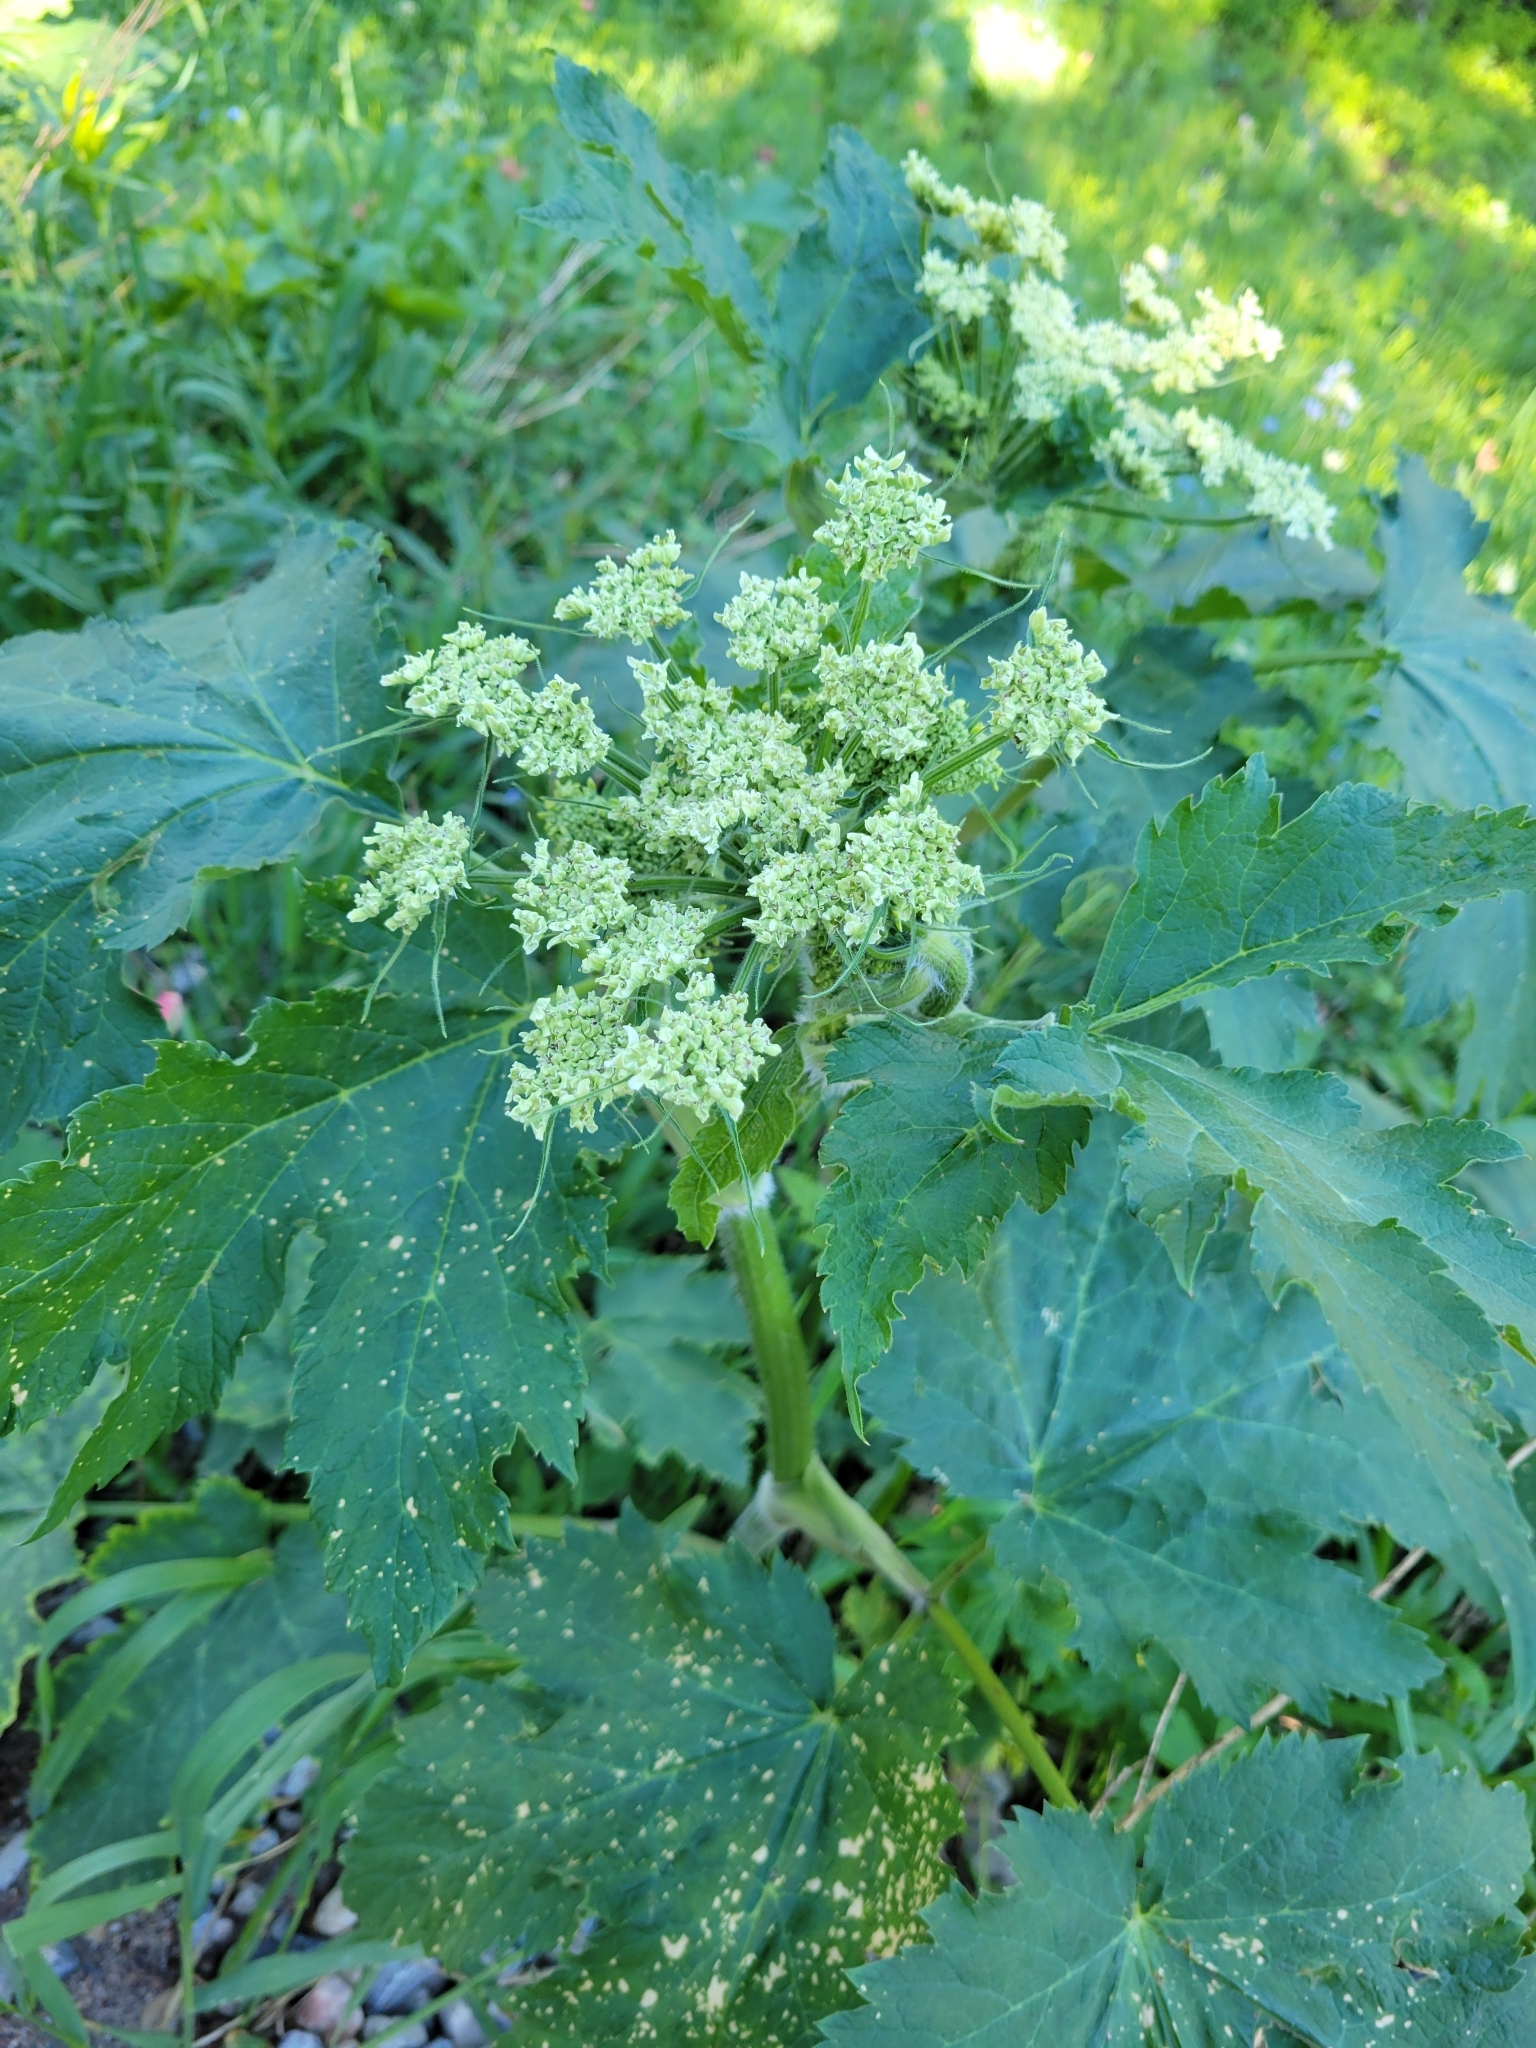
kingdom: Plantae
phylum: Tracheophyta
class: Magnoliopsida
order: Apiales
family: Apiaceae
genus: Heracleum
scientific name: Heracleum maximum
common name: American cow parsnip
